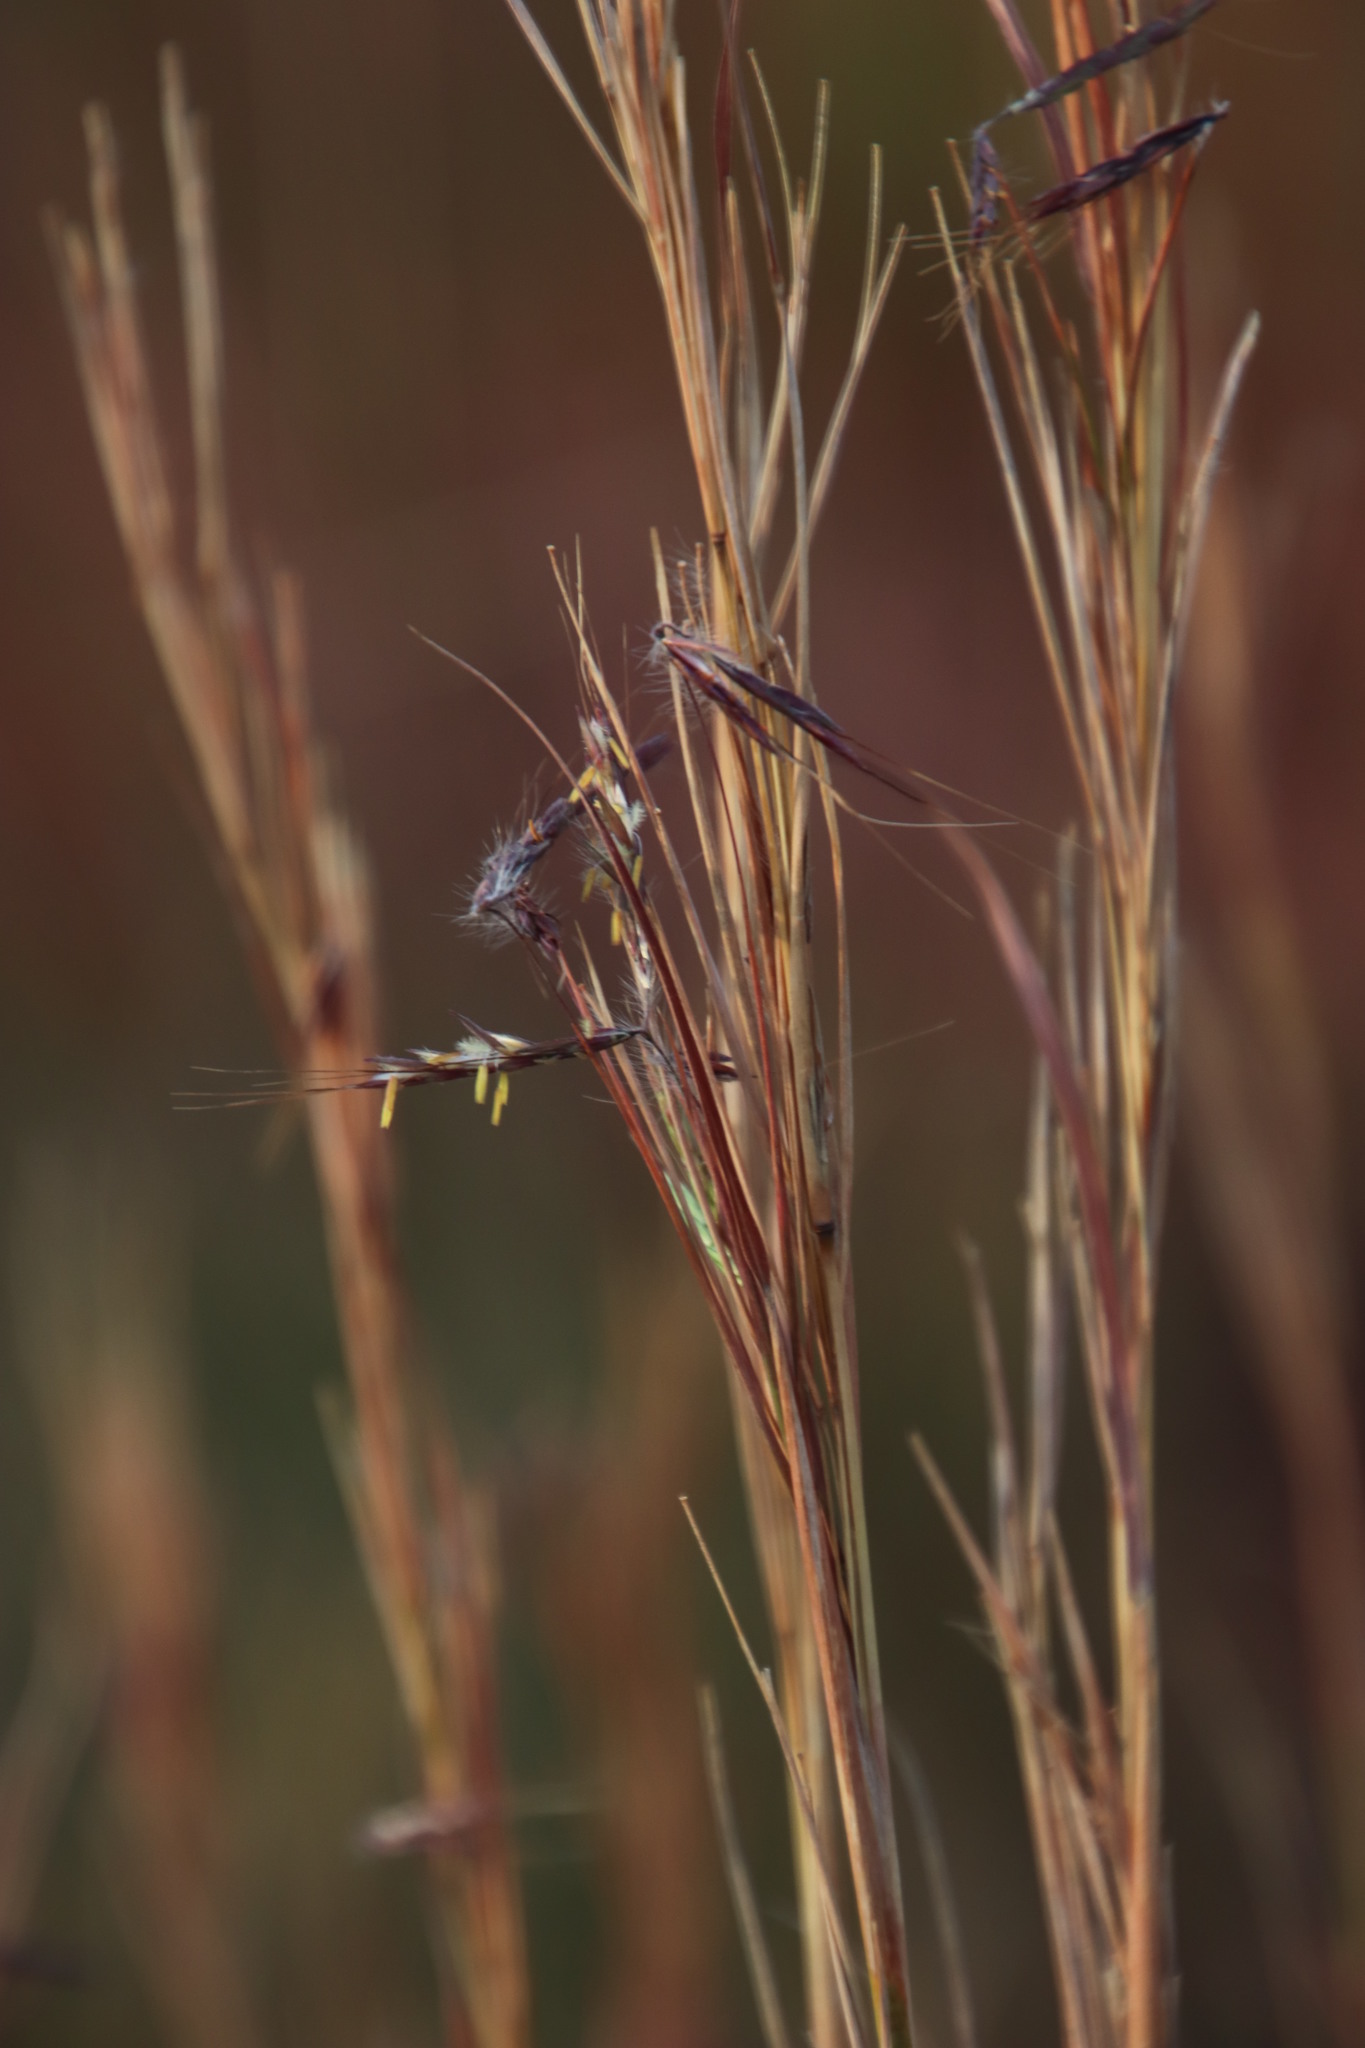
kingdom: Plantae
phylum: Tracheophyta
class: Liliopsida
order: Poales
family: Poaceae
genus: Hyparrhenia
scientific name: Hyparrhenia hirta
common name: Thatching grass
